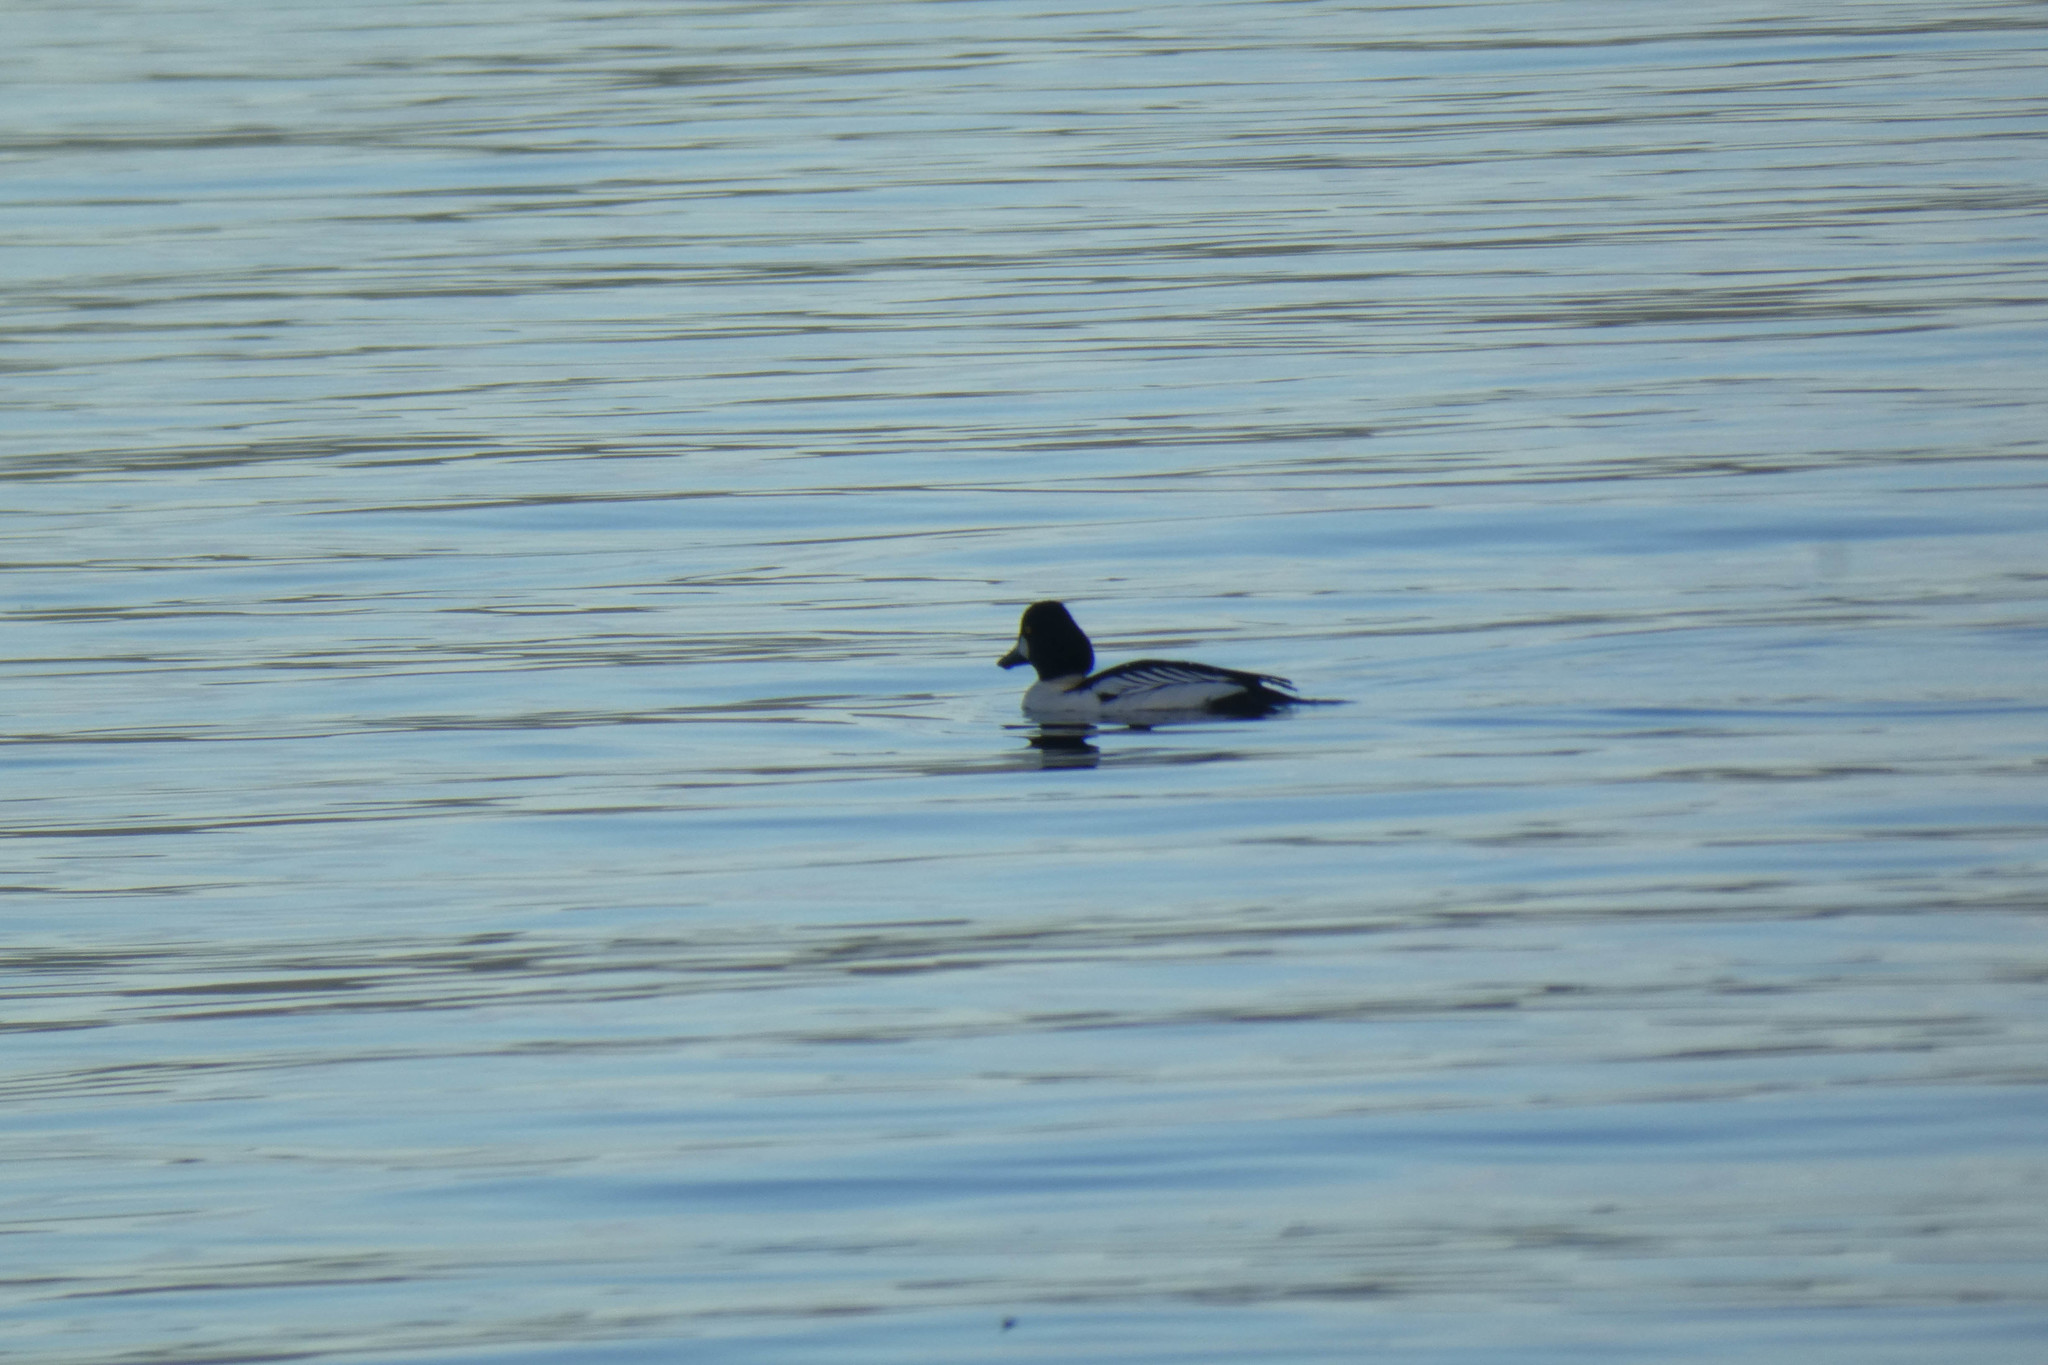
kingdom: Animalia
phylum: Chordata
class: Aves
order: Anseriformes
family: Anatidae
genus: Bucephala
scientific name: Bucephala clangula
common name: Common goldeneye
